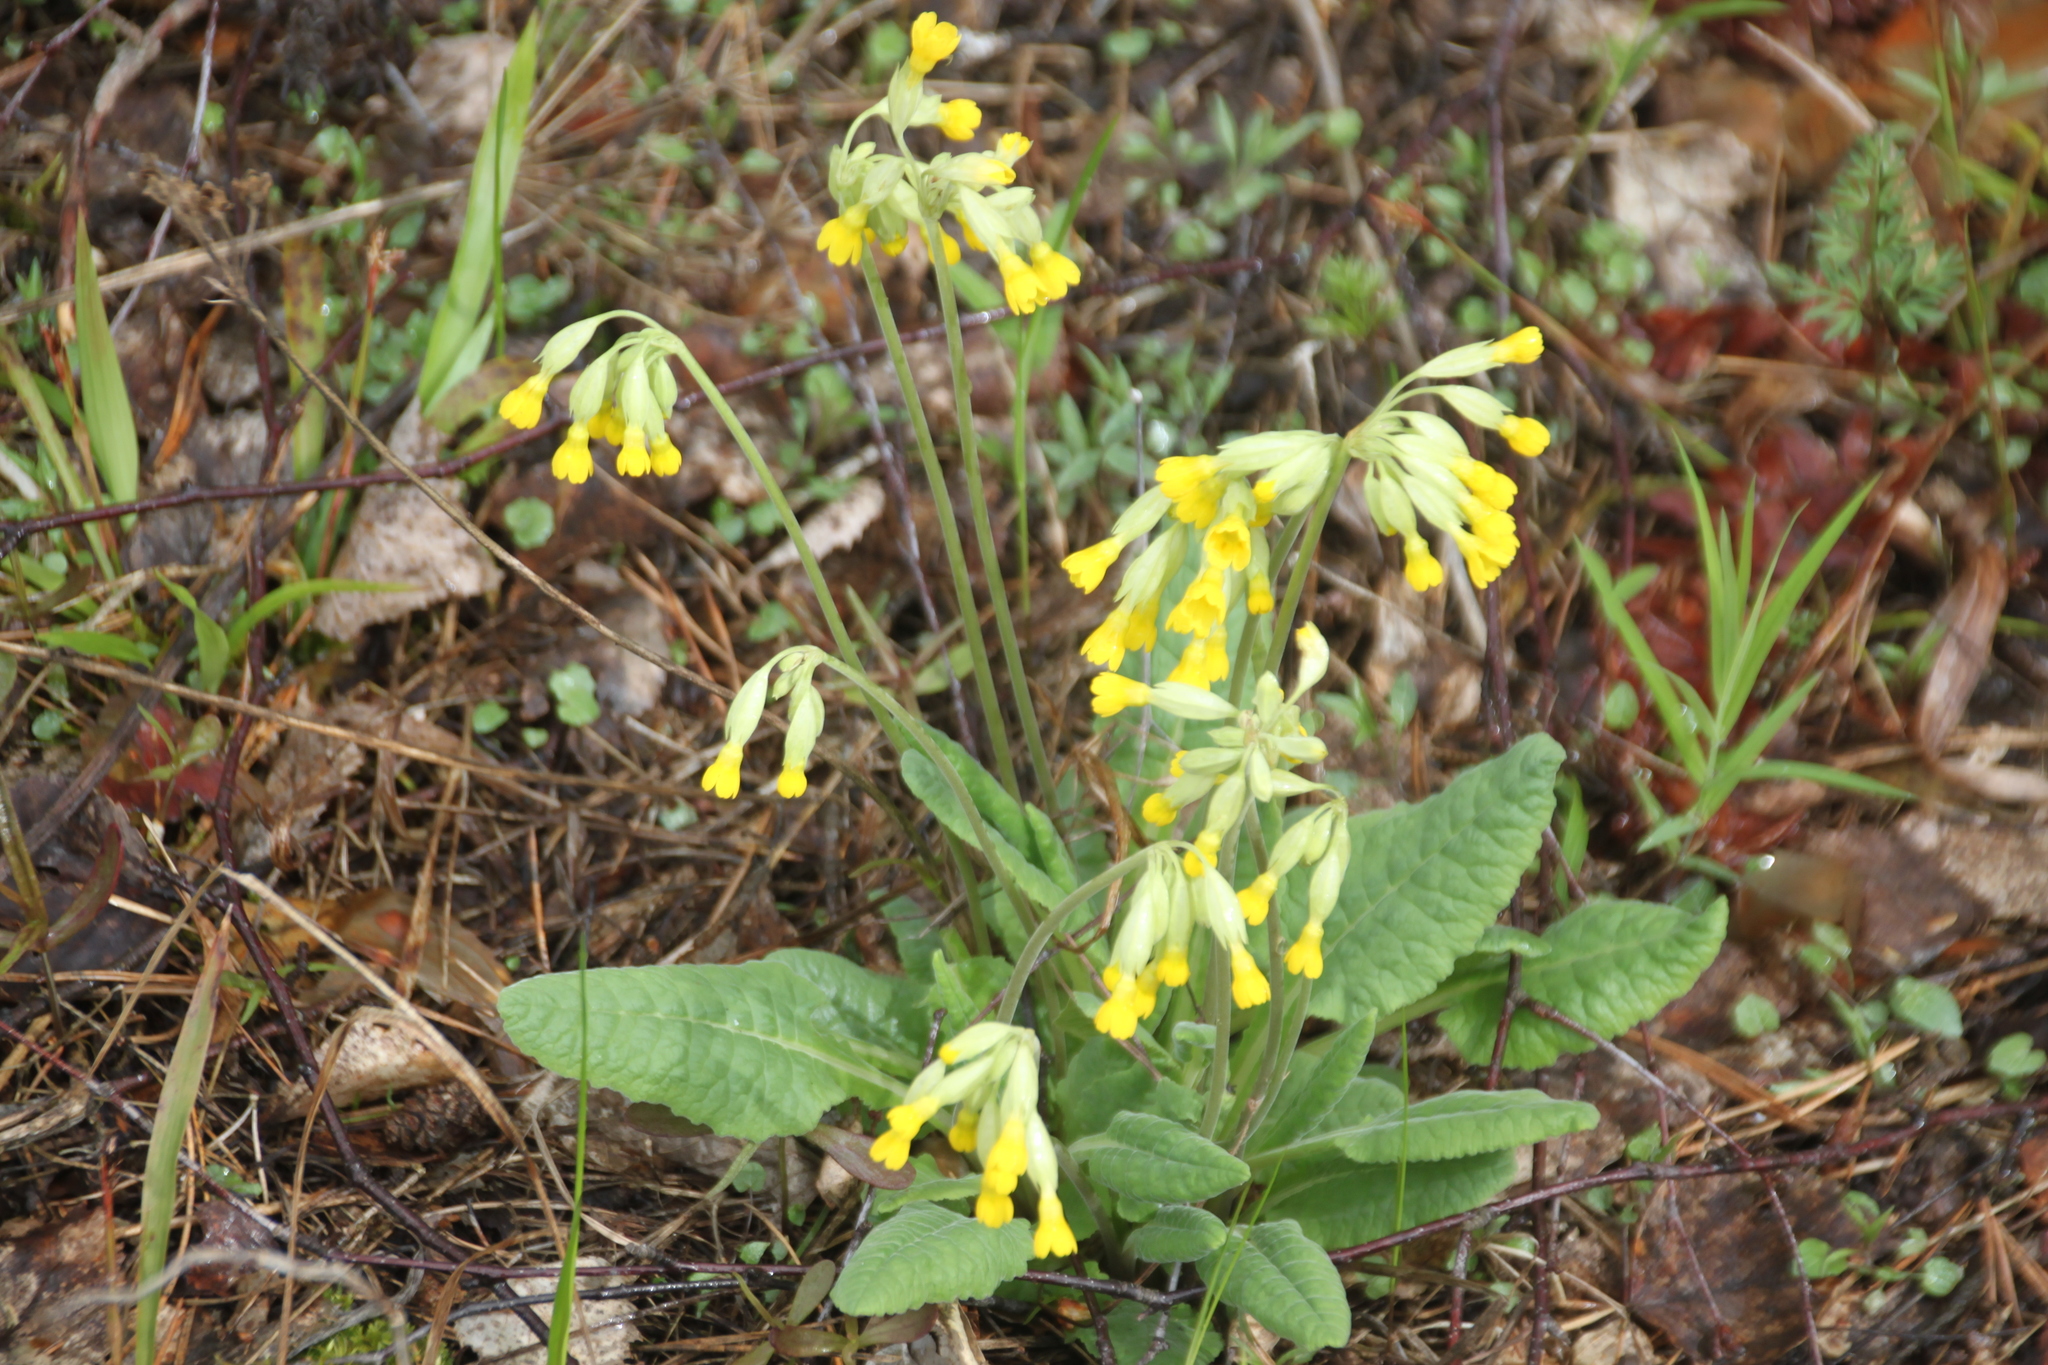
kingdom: Plantae
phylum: Tracheophyta
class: Magnoliopsida
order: Ericales
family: Primulaceae
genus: Primula
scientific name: Primula veris
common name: Cowslip
